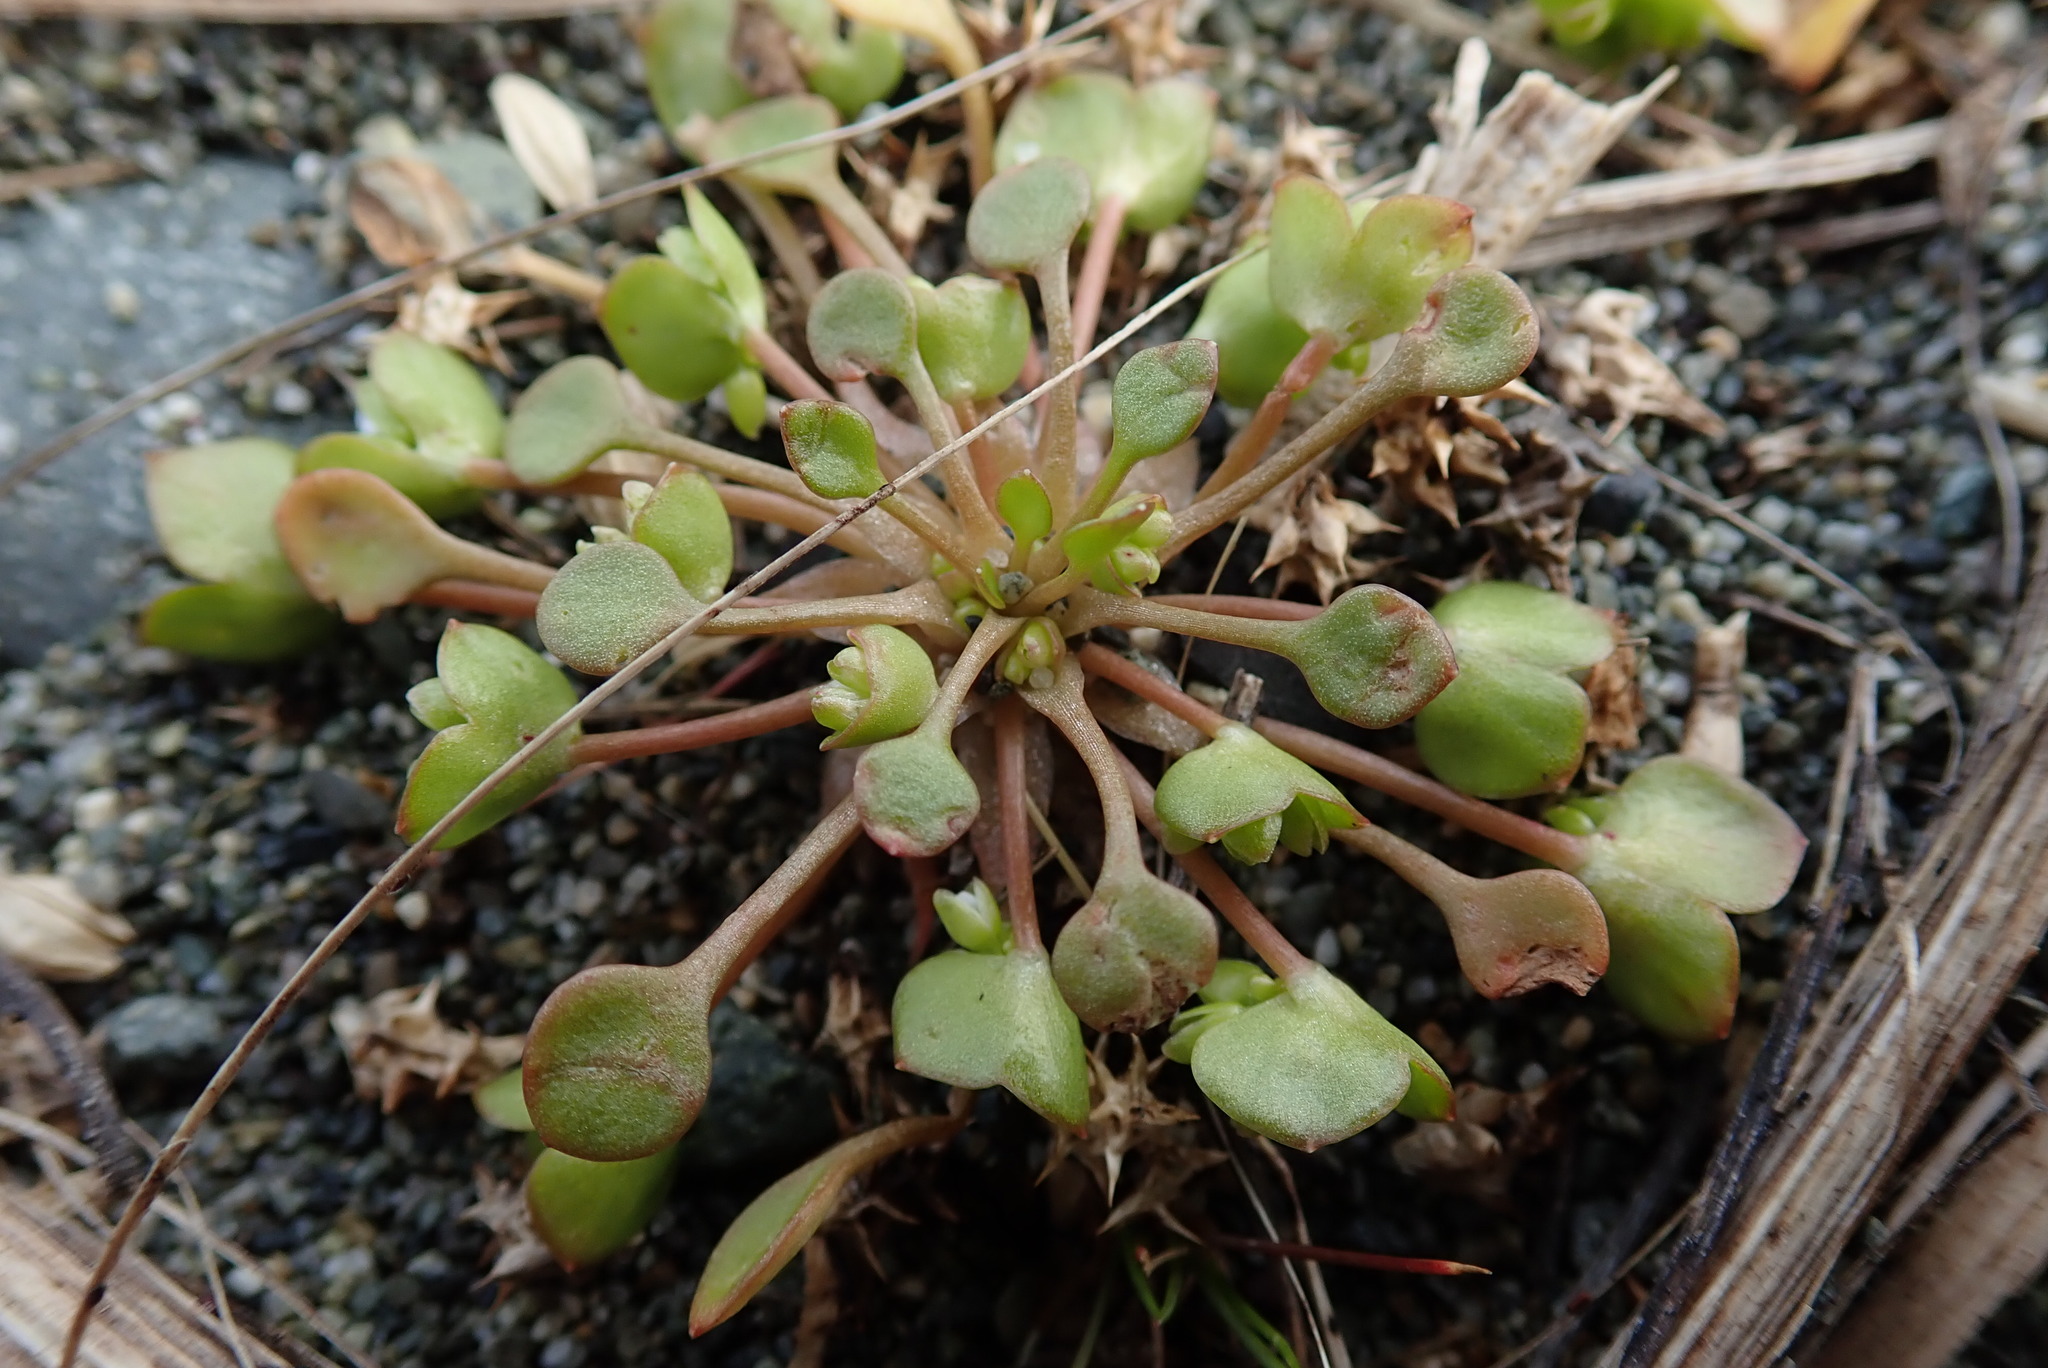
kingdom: Plantae
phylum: Tracheophyta
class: Magnoliopsida
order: Caryophyllales
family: Montiaceae
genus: Claytonia
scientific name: Claytonia rubra
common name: Erubescent miner's-lettuce
